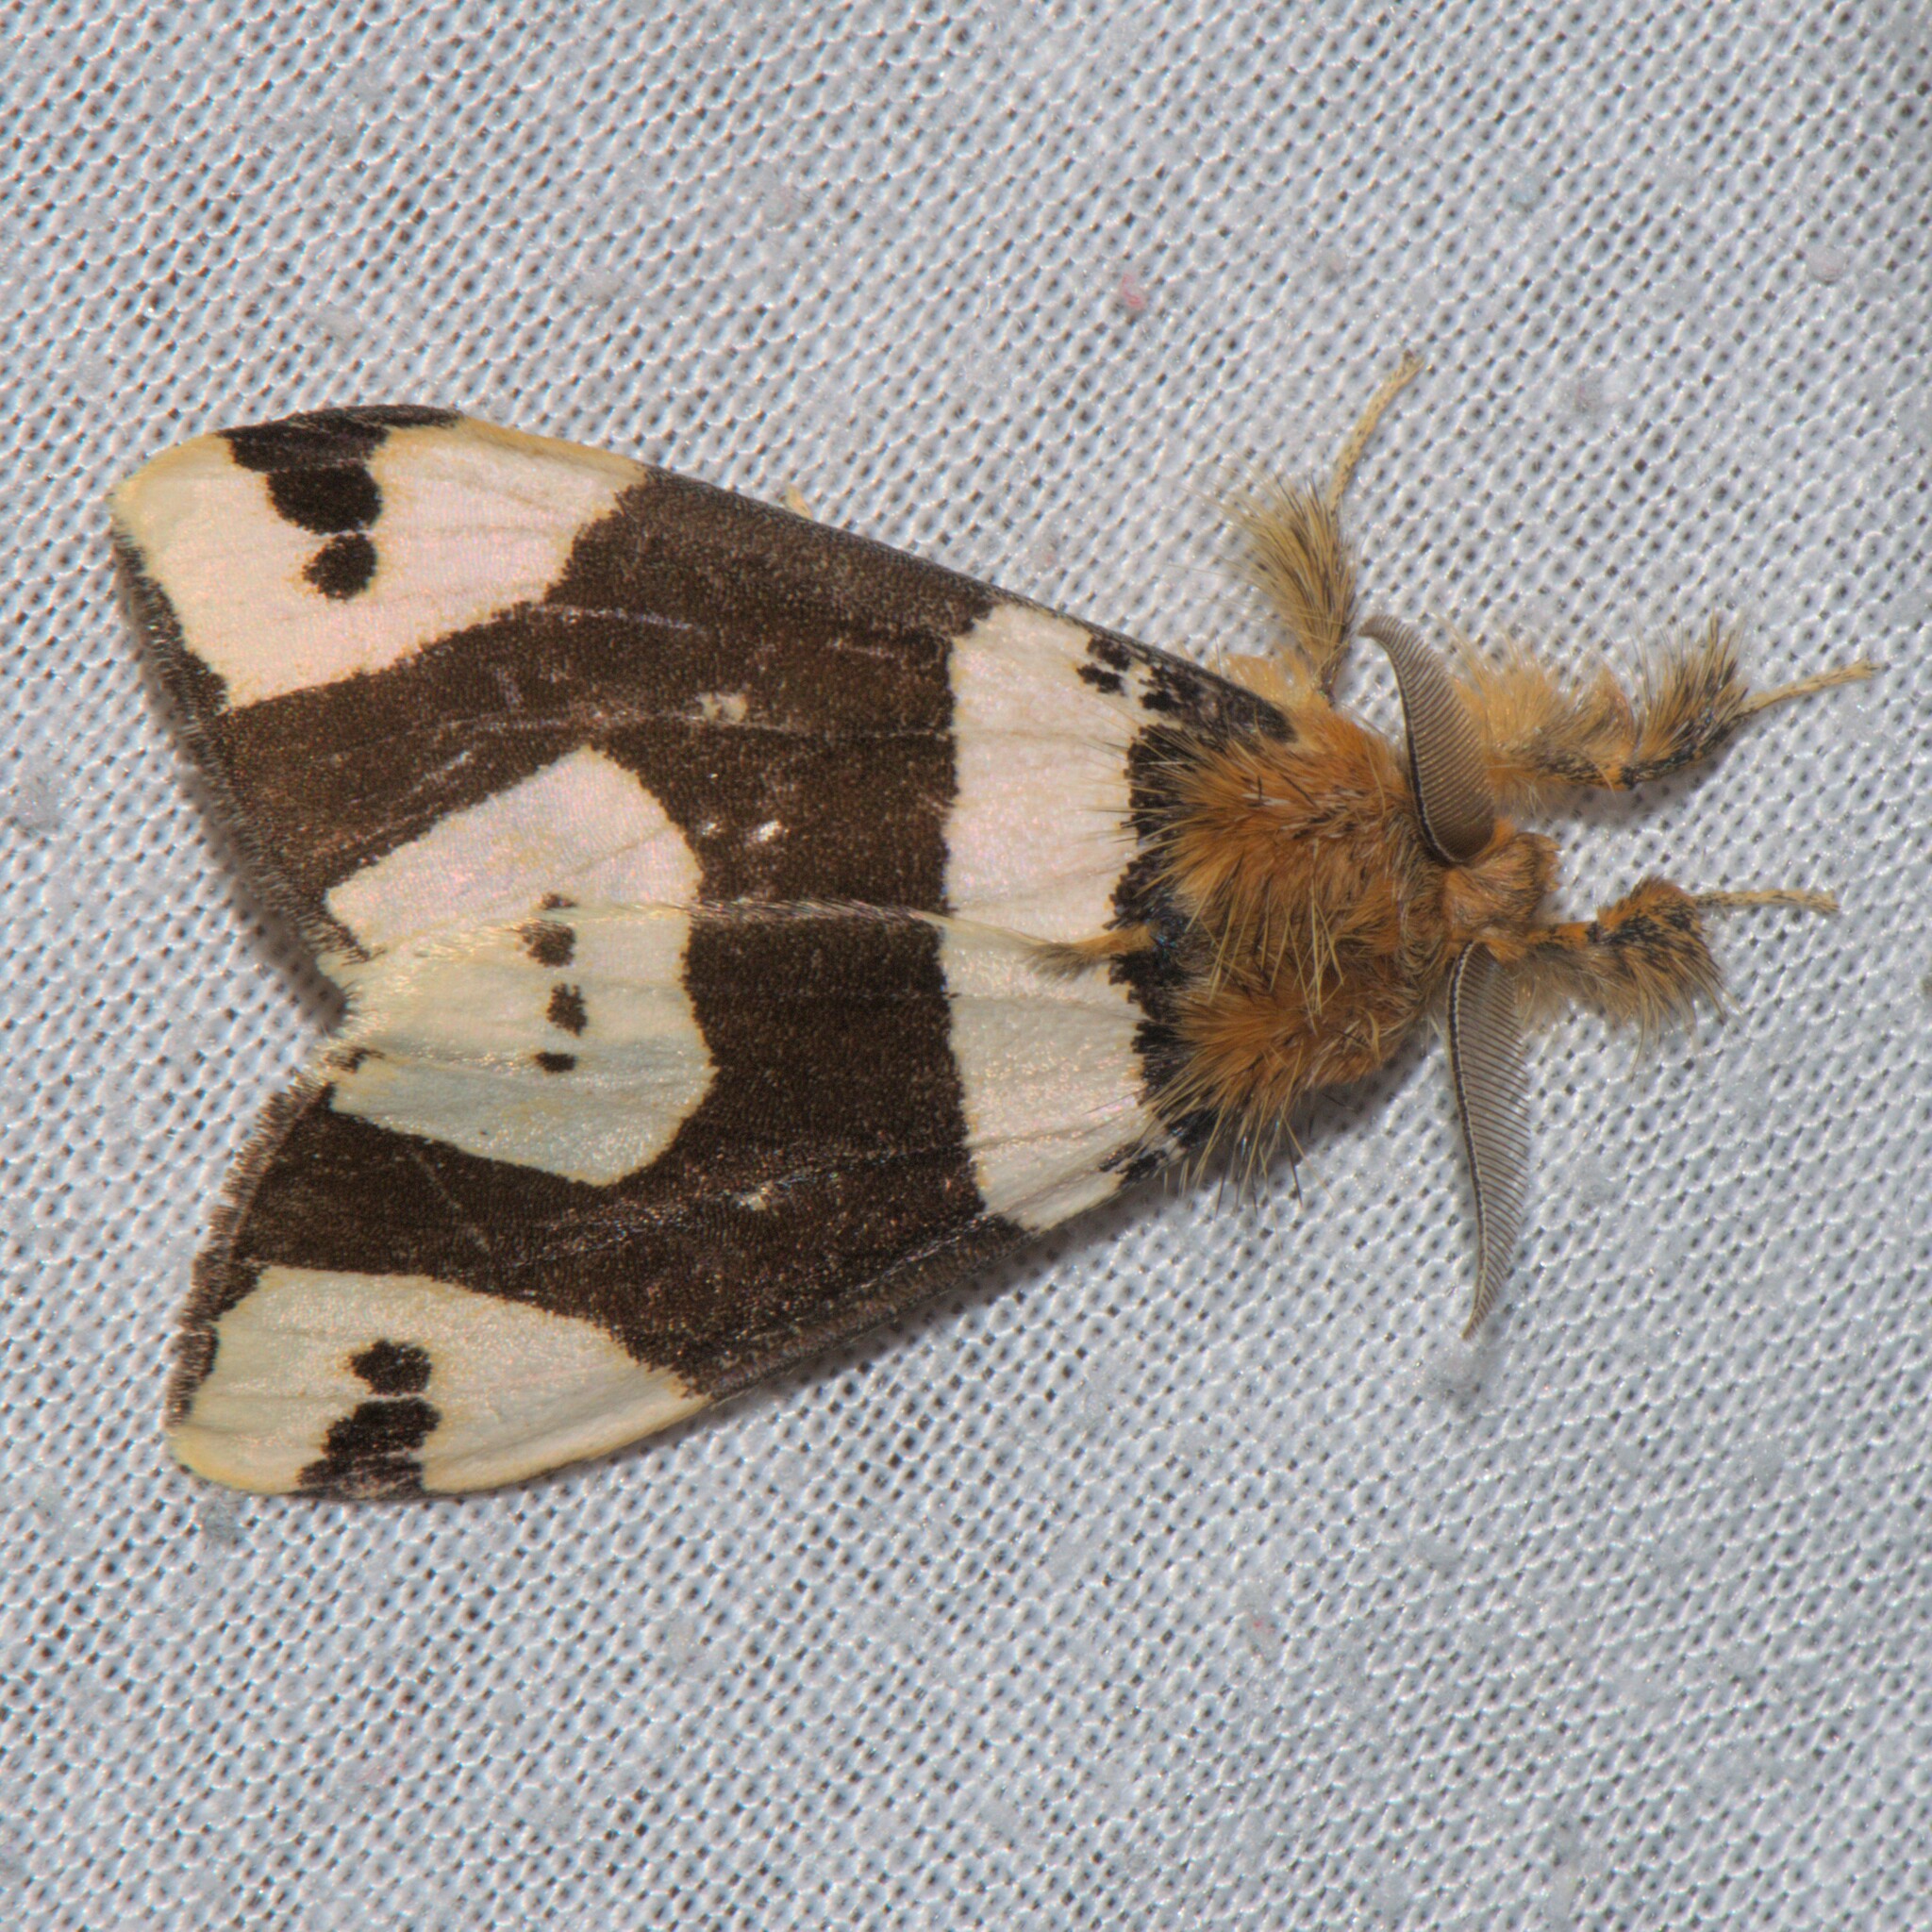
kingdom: Animalia
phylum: Arthropoda
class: Insecta
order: Lepidoptera
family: Erebidae
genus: Pida
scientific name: Pida
